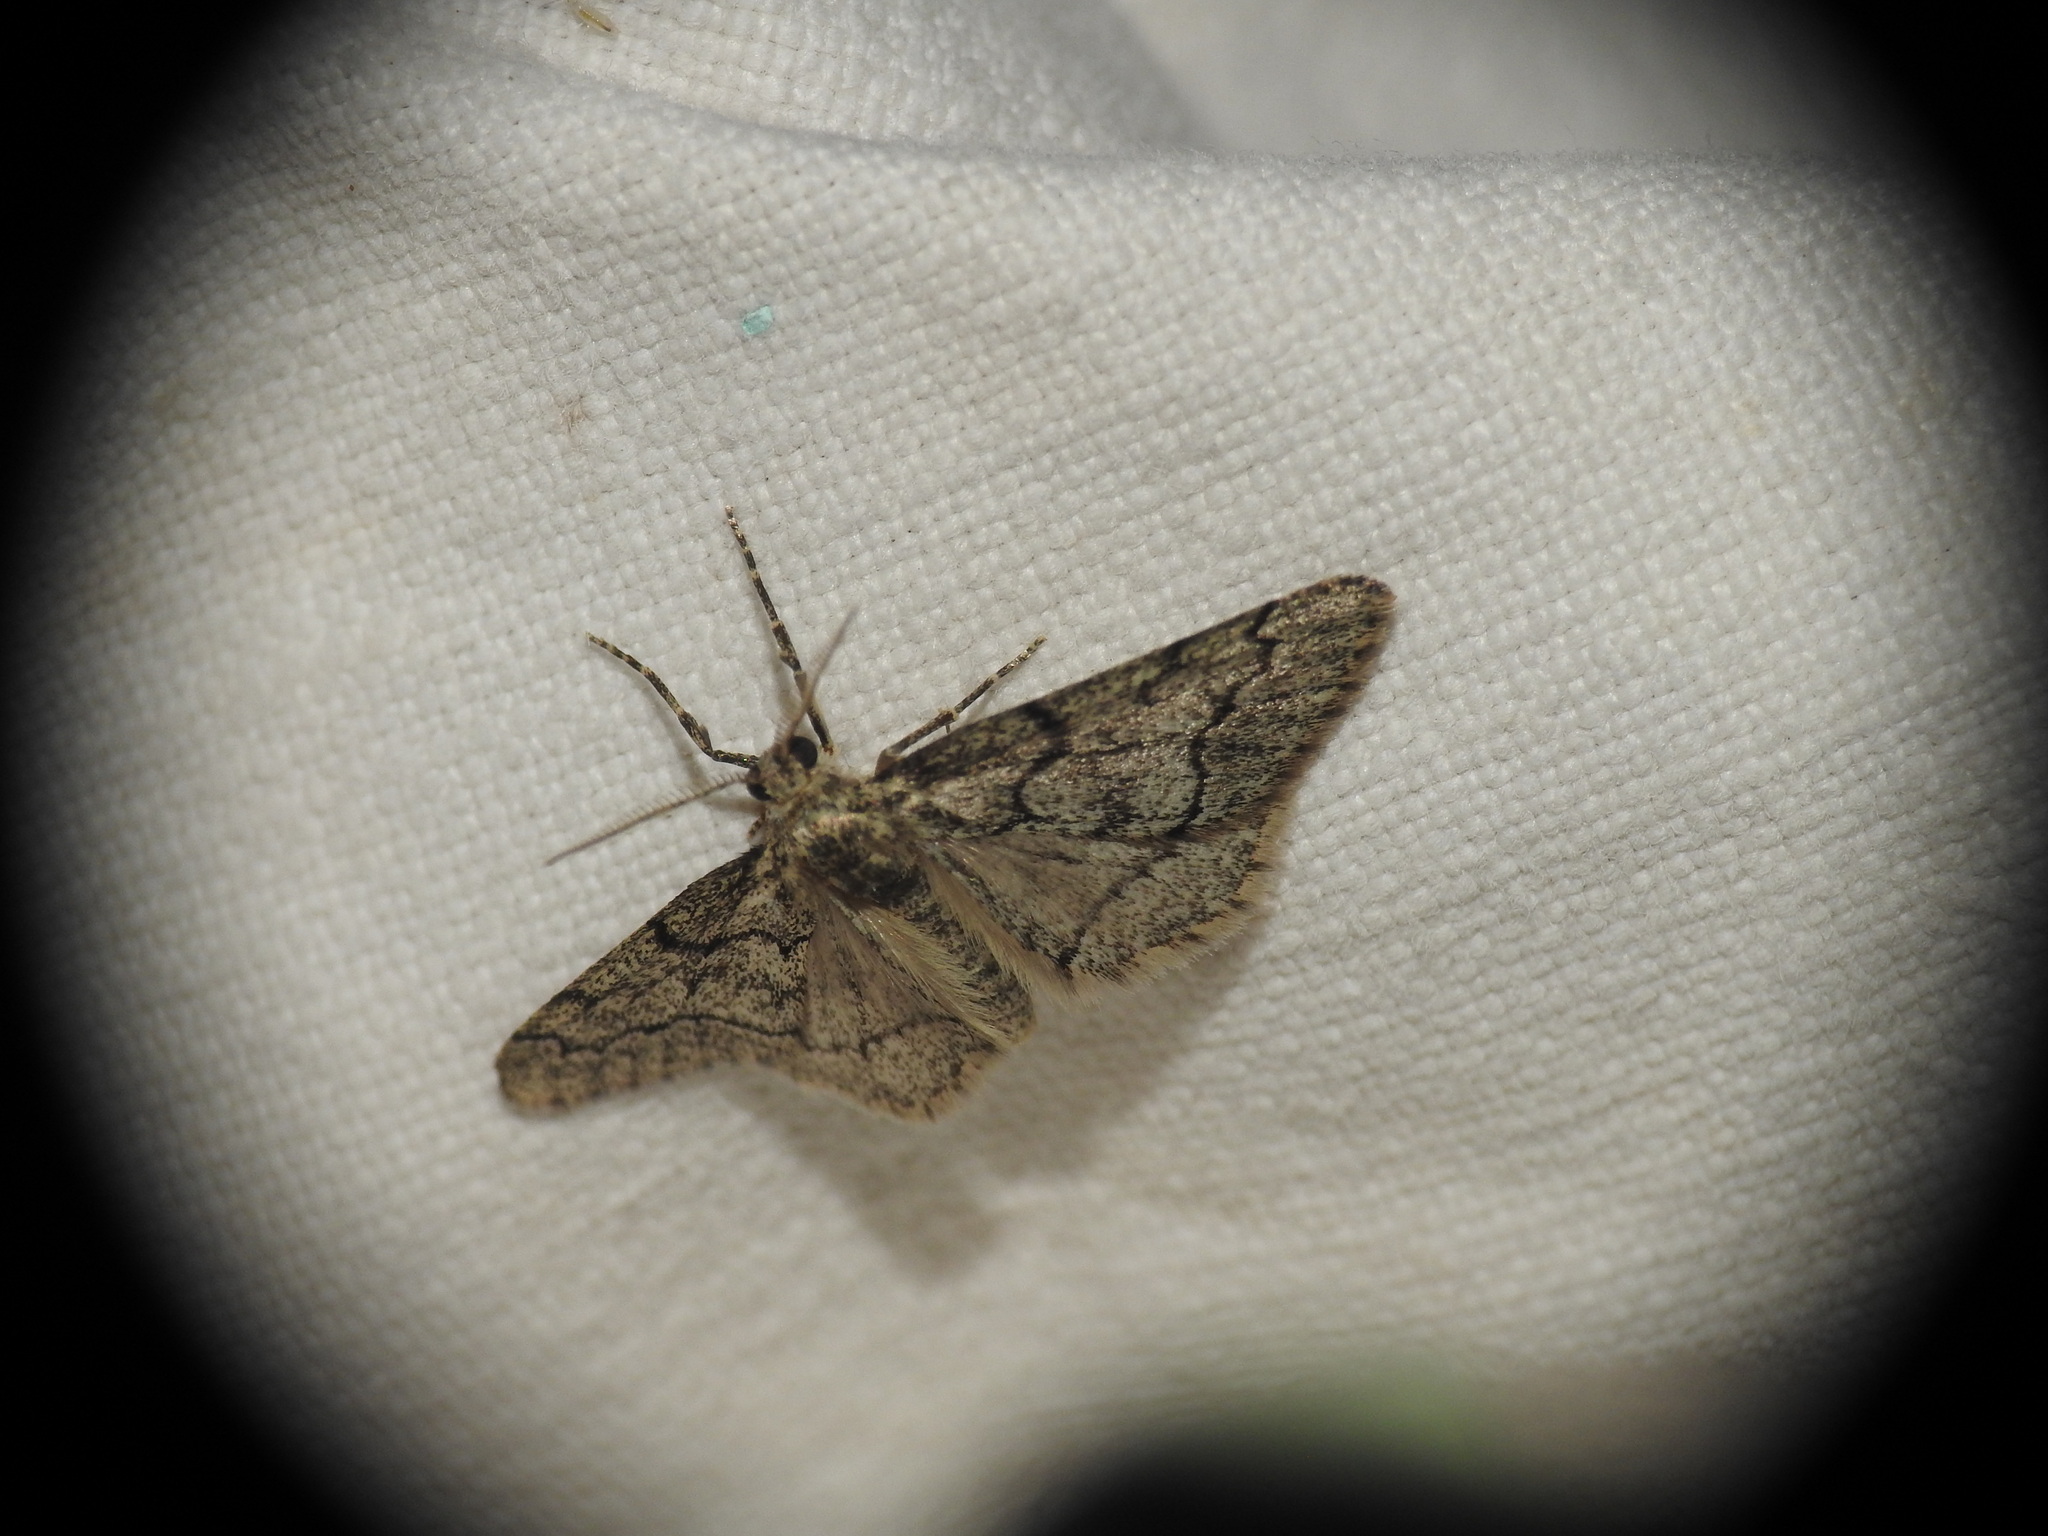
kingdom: Animalia
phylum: Arthropoda
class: Insecta
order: Lepidoptera
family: Geometridae
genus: Tephronia
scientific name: Tephronia sepiaria
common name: Dusky carpet
